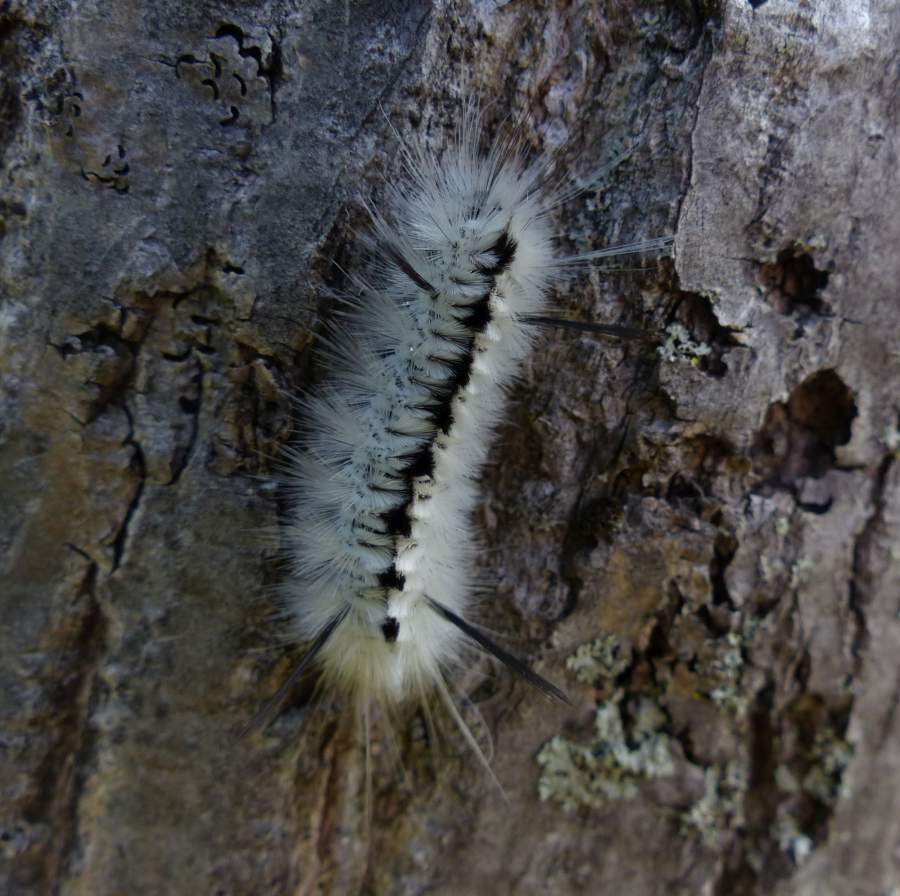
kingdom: Animalia
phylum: Arthropoda
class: Insecta
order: Lepidoptera
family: Erebidae
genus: Lophocampa
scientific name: Lophocampa caryae
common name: Hickory tussock moth
